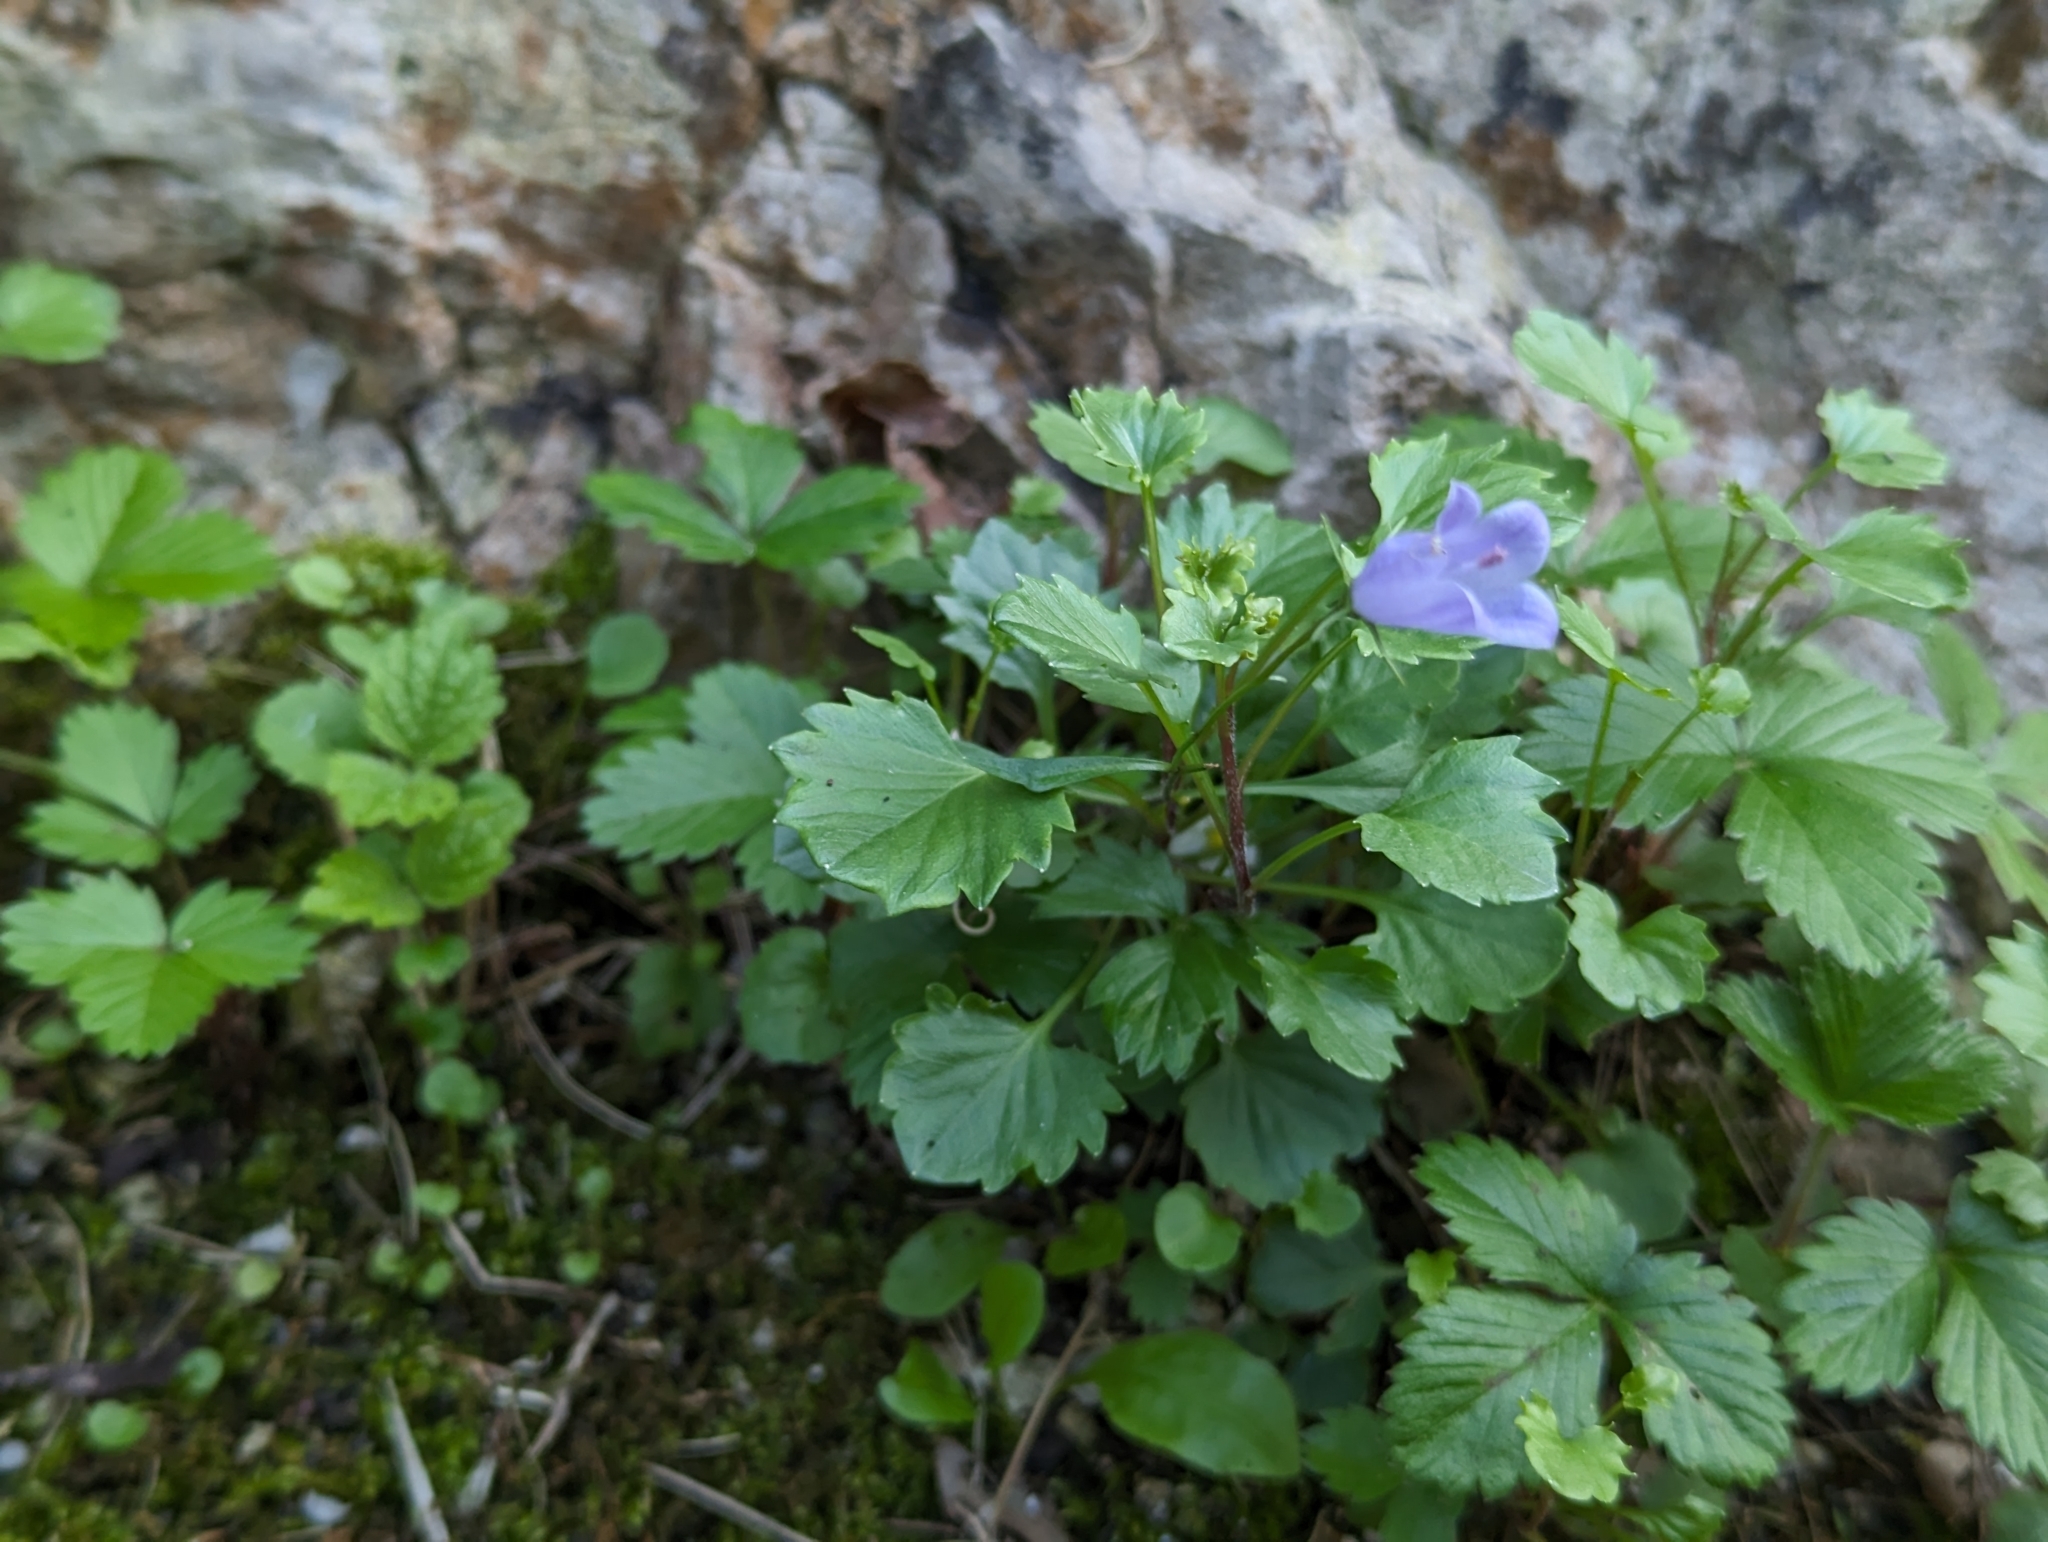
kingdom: Plantae
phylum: Tracheophyta
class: Magnoliopsida
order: Asterales
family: Campanulaceae
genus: Campanula
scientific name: Campanula cochleariifolia
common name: Fairies'-thimbles
